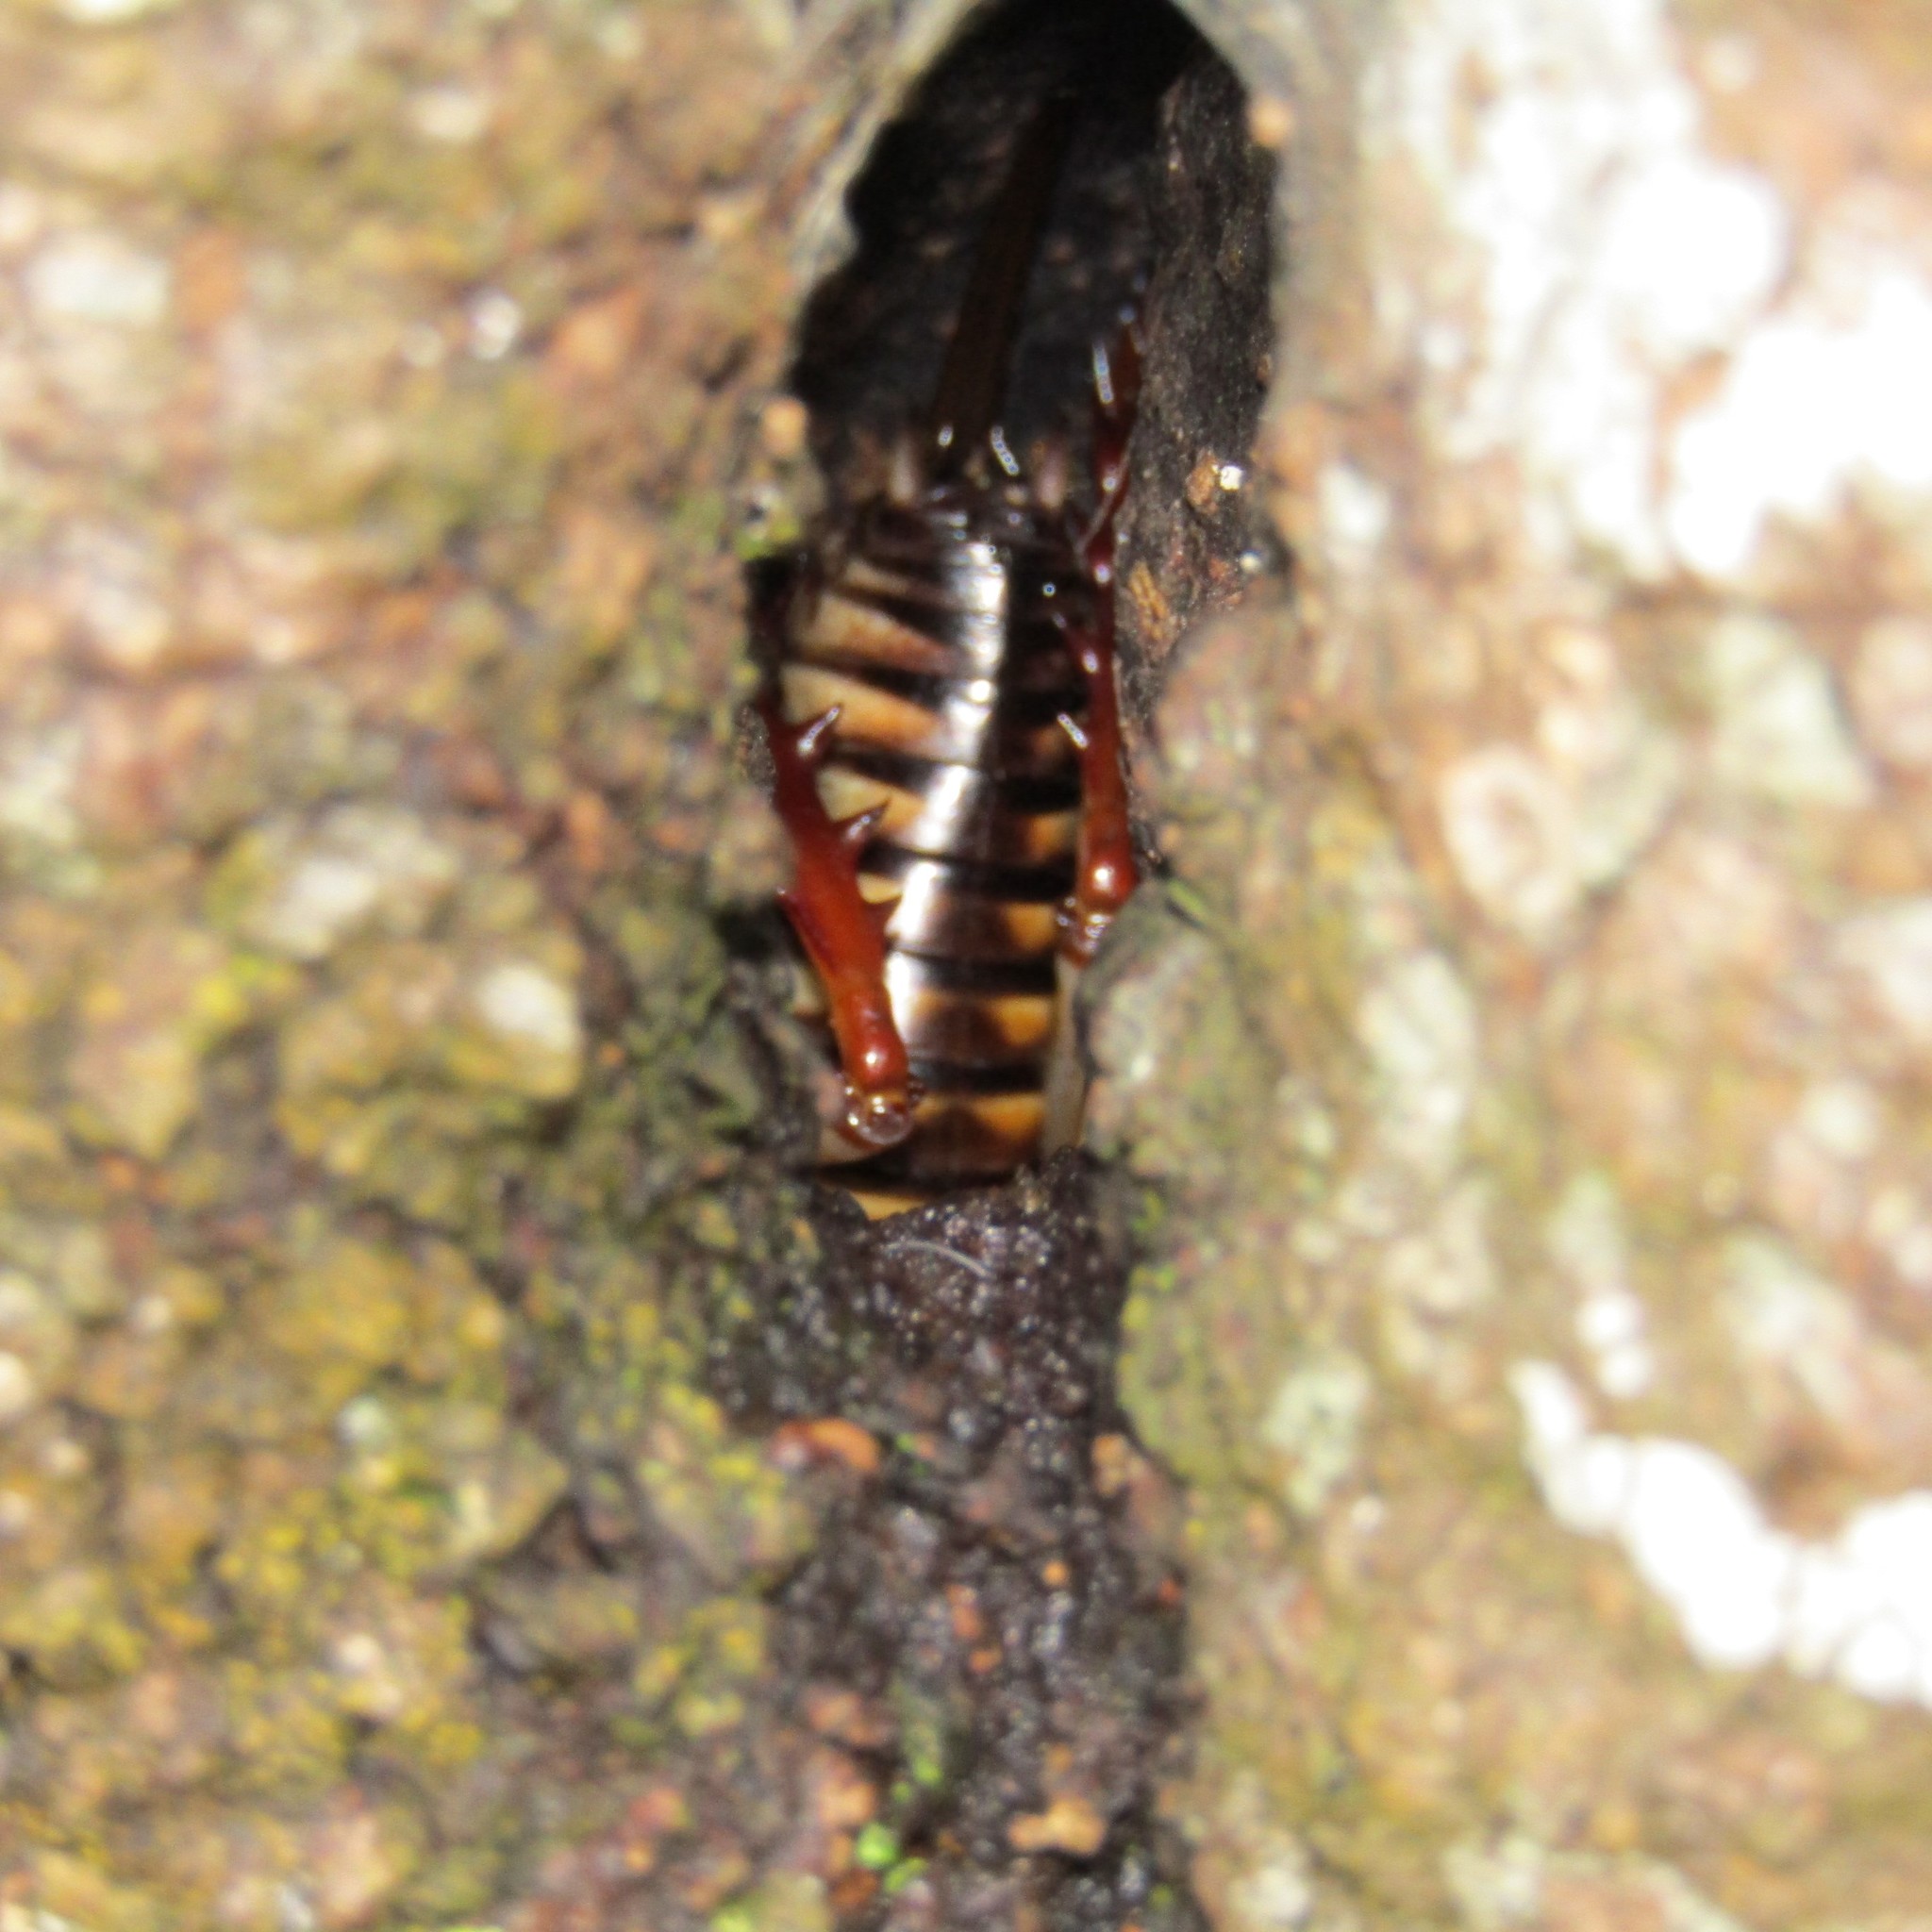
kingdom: Animalia
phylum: Arthropoda
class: Insecta
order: Orthoptera
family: Anostostomatidae
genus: Hemideina
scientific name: Hemideina crassidens
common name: Wellington tree weta
